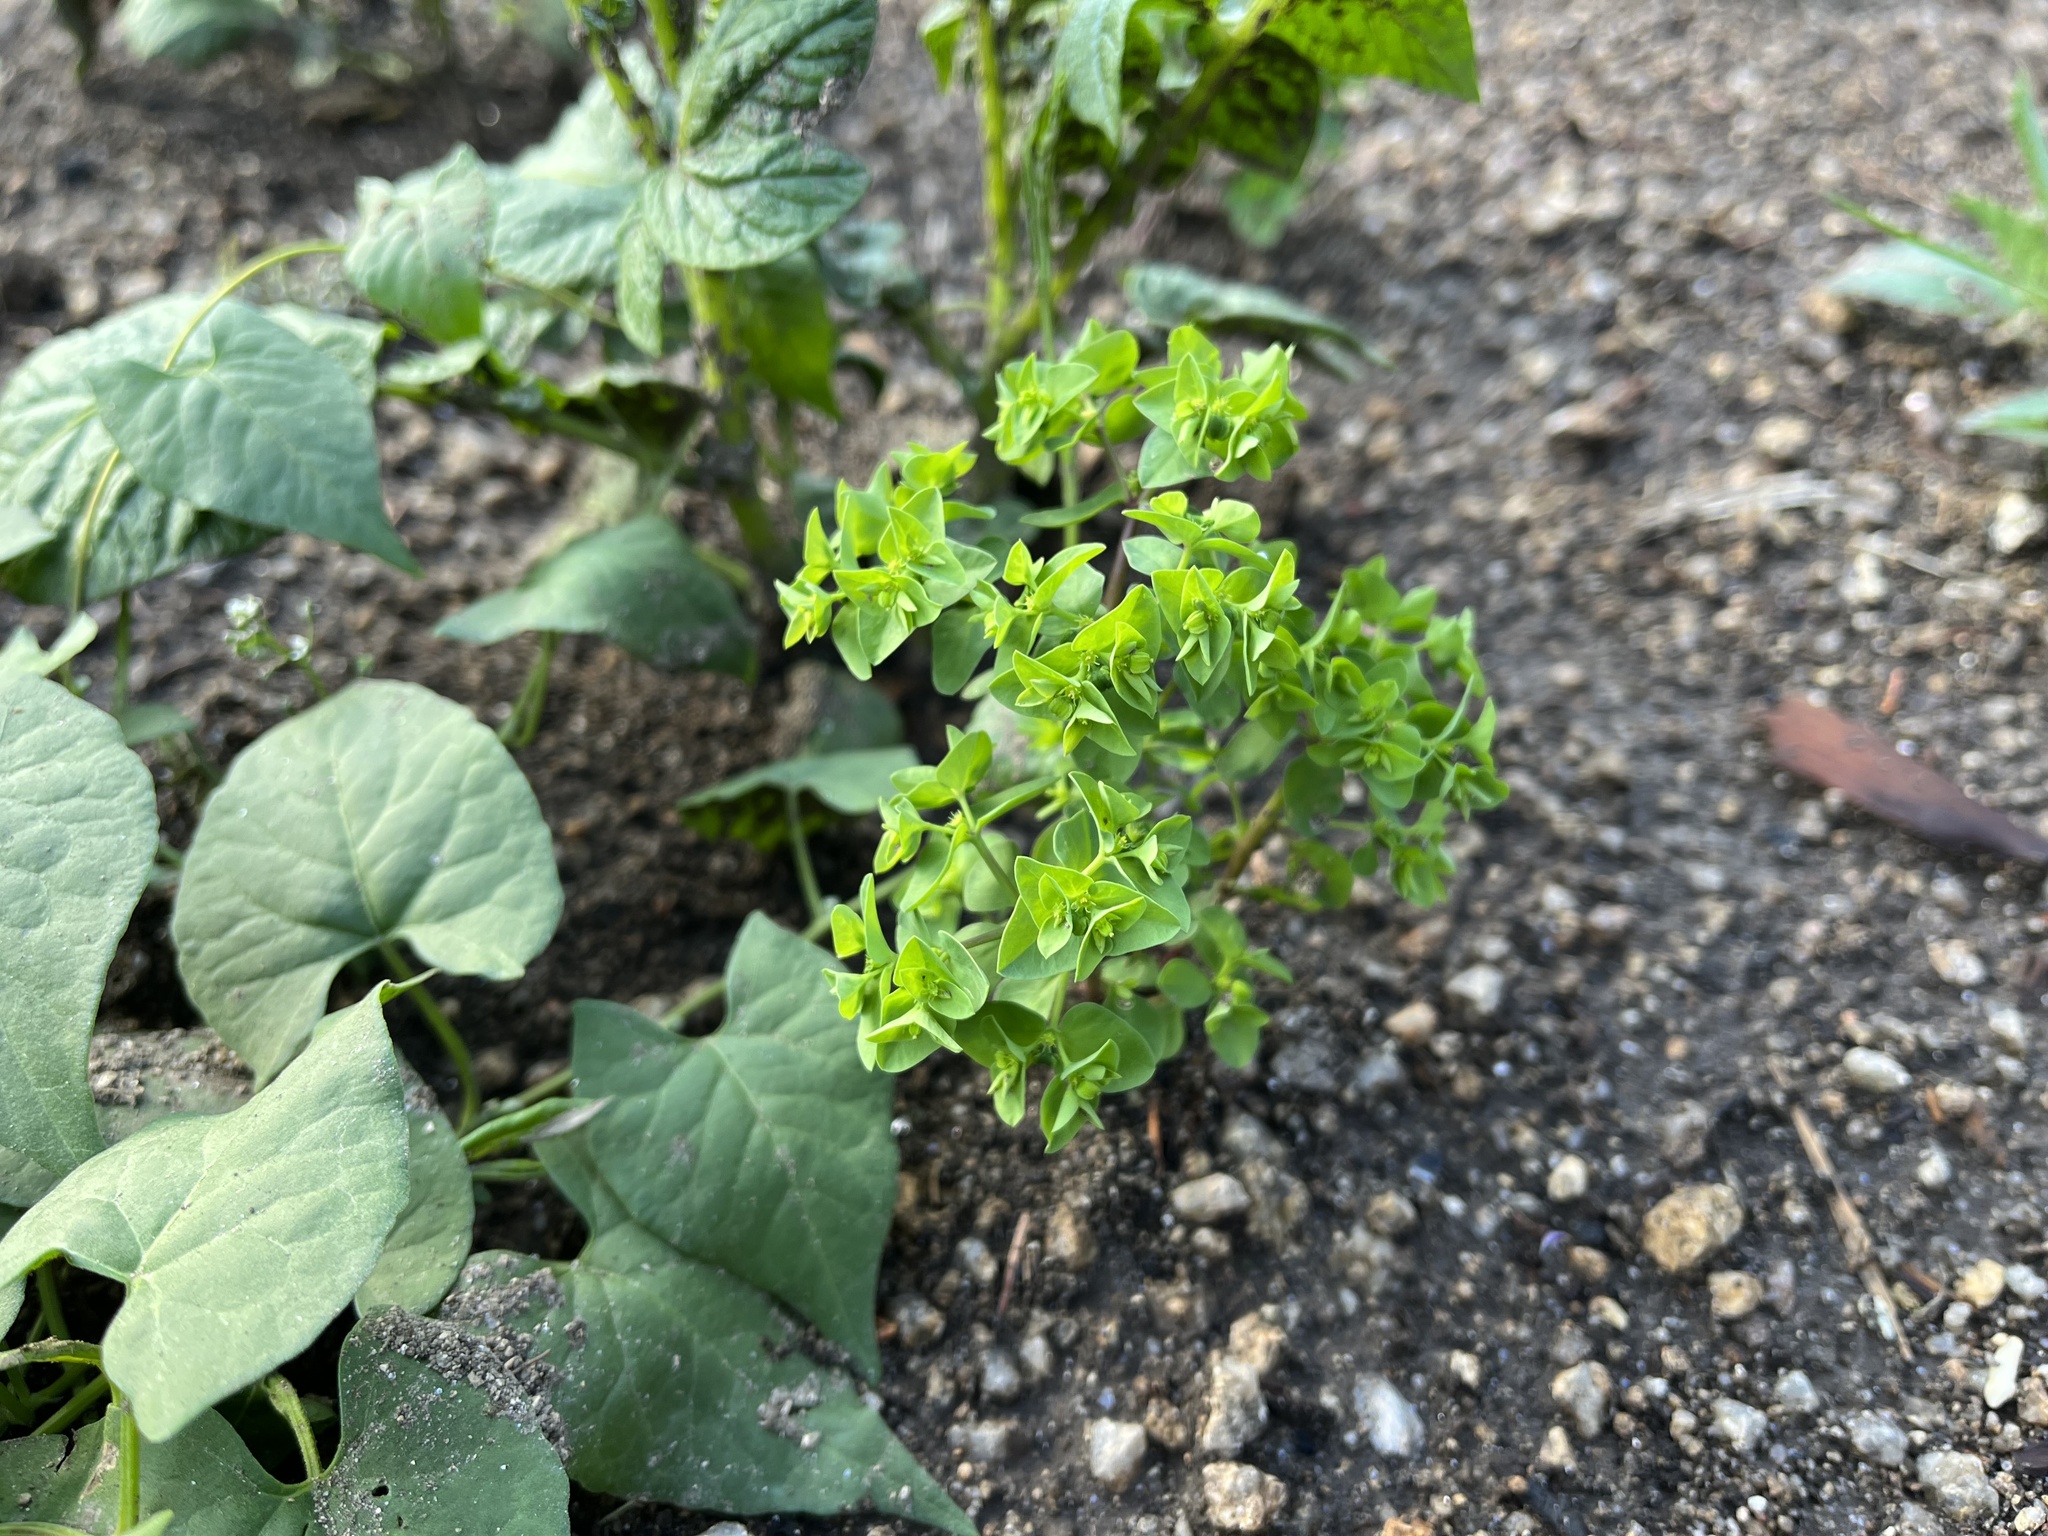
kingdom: Plantae
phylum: Tracheophyta
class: Magnoliopsida
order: Malpighiales
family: Euphorbiaceae
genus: Euphorbia
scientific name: Euphorbia peplus
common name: Petty spurge
